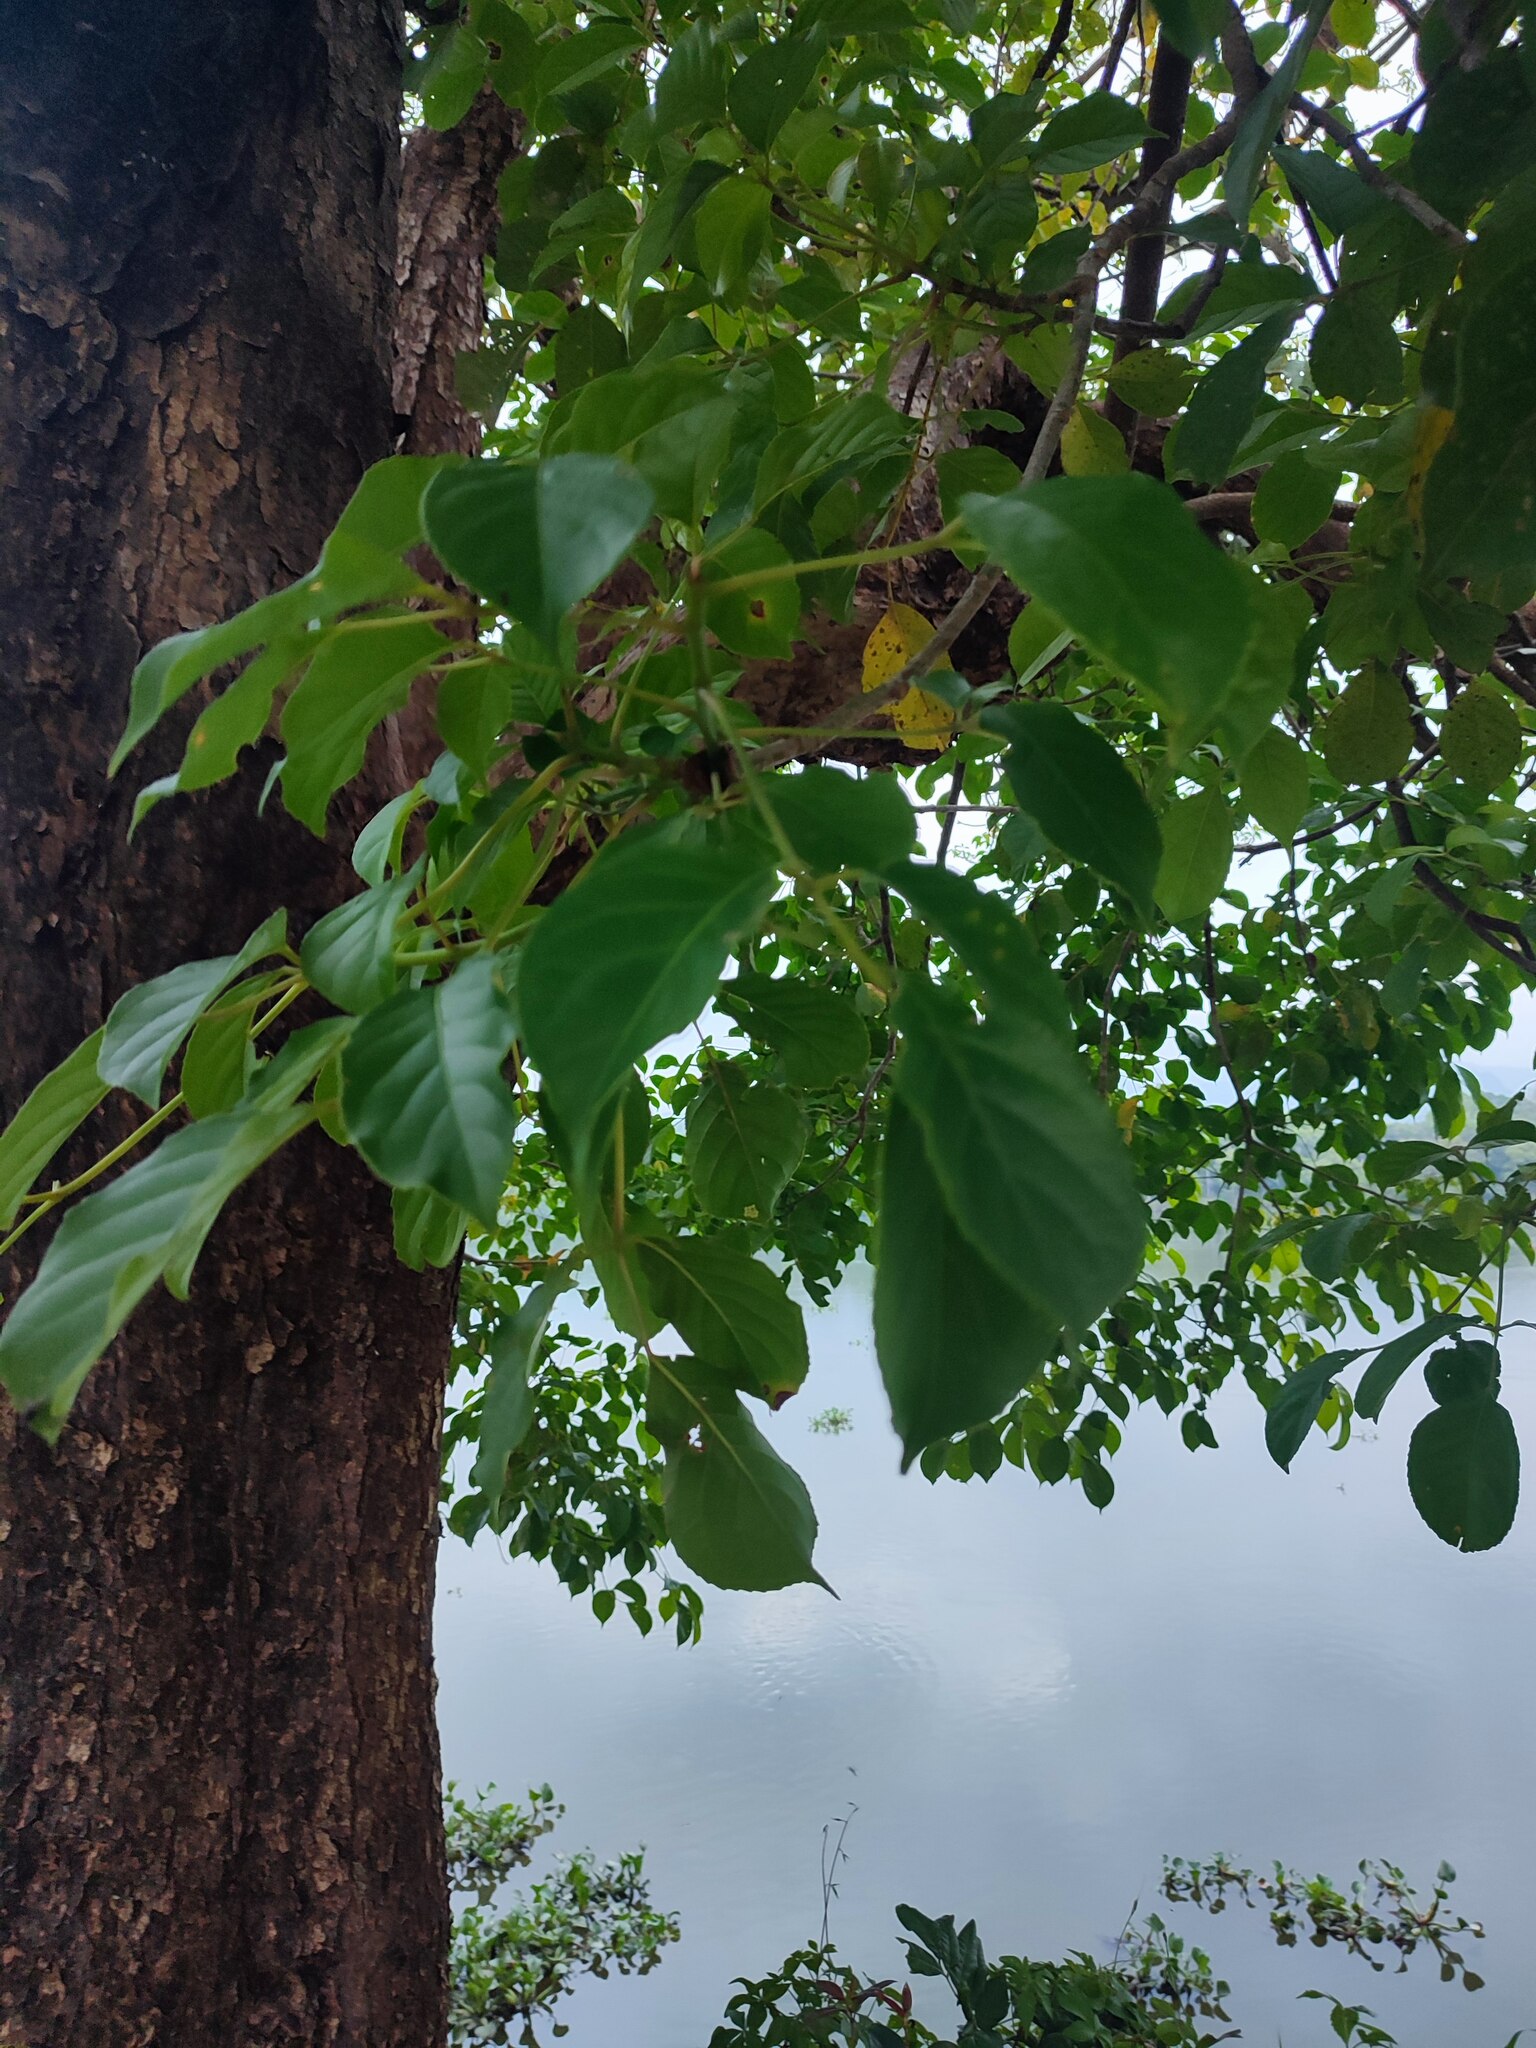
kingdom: Plantae
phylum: Tracheophyta
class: Magnoliopsida
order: Malpighiales
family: Phyllanthaceae
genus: Bischofia
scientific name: Bischofia javanica
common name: Javanese bishopwood
